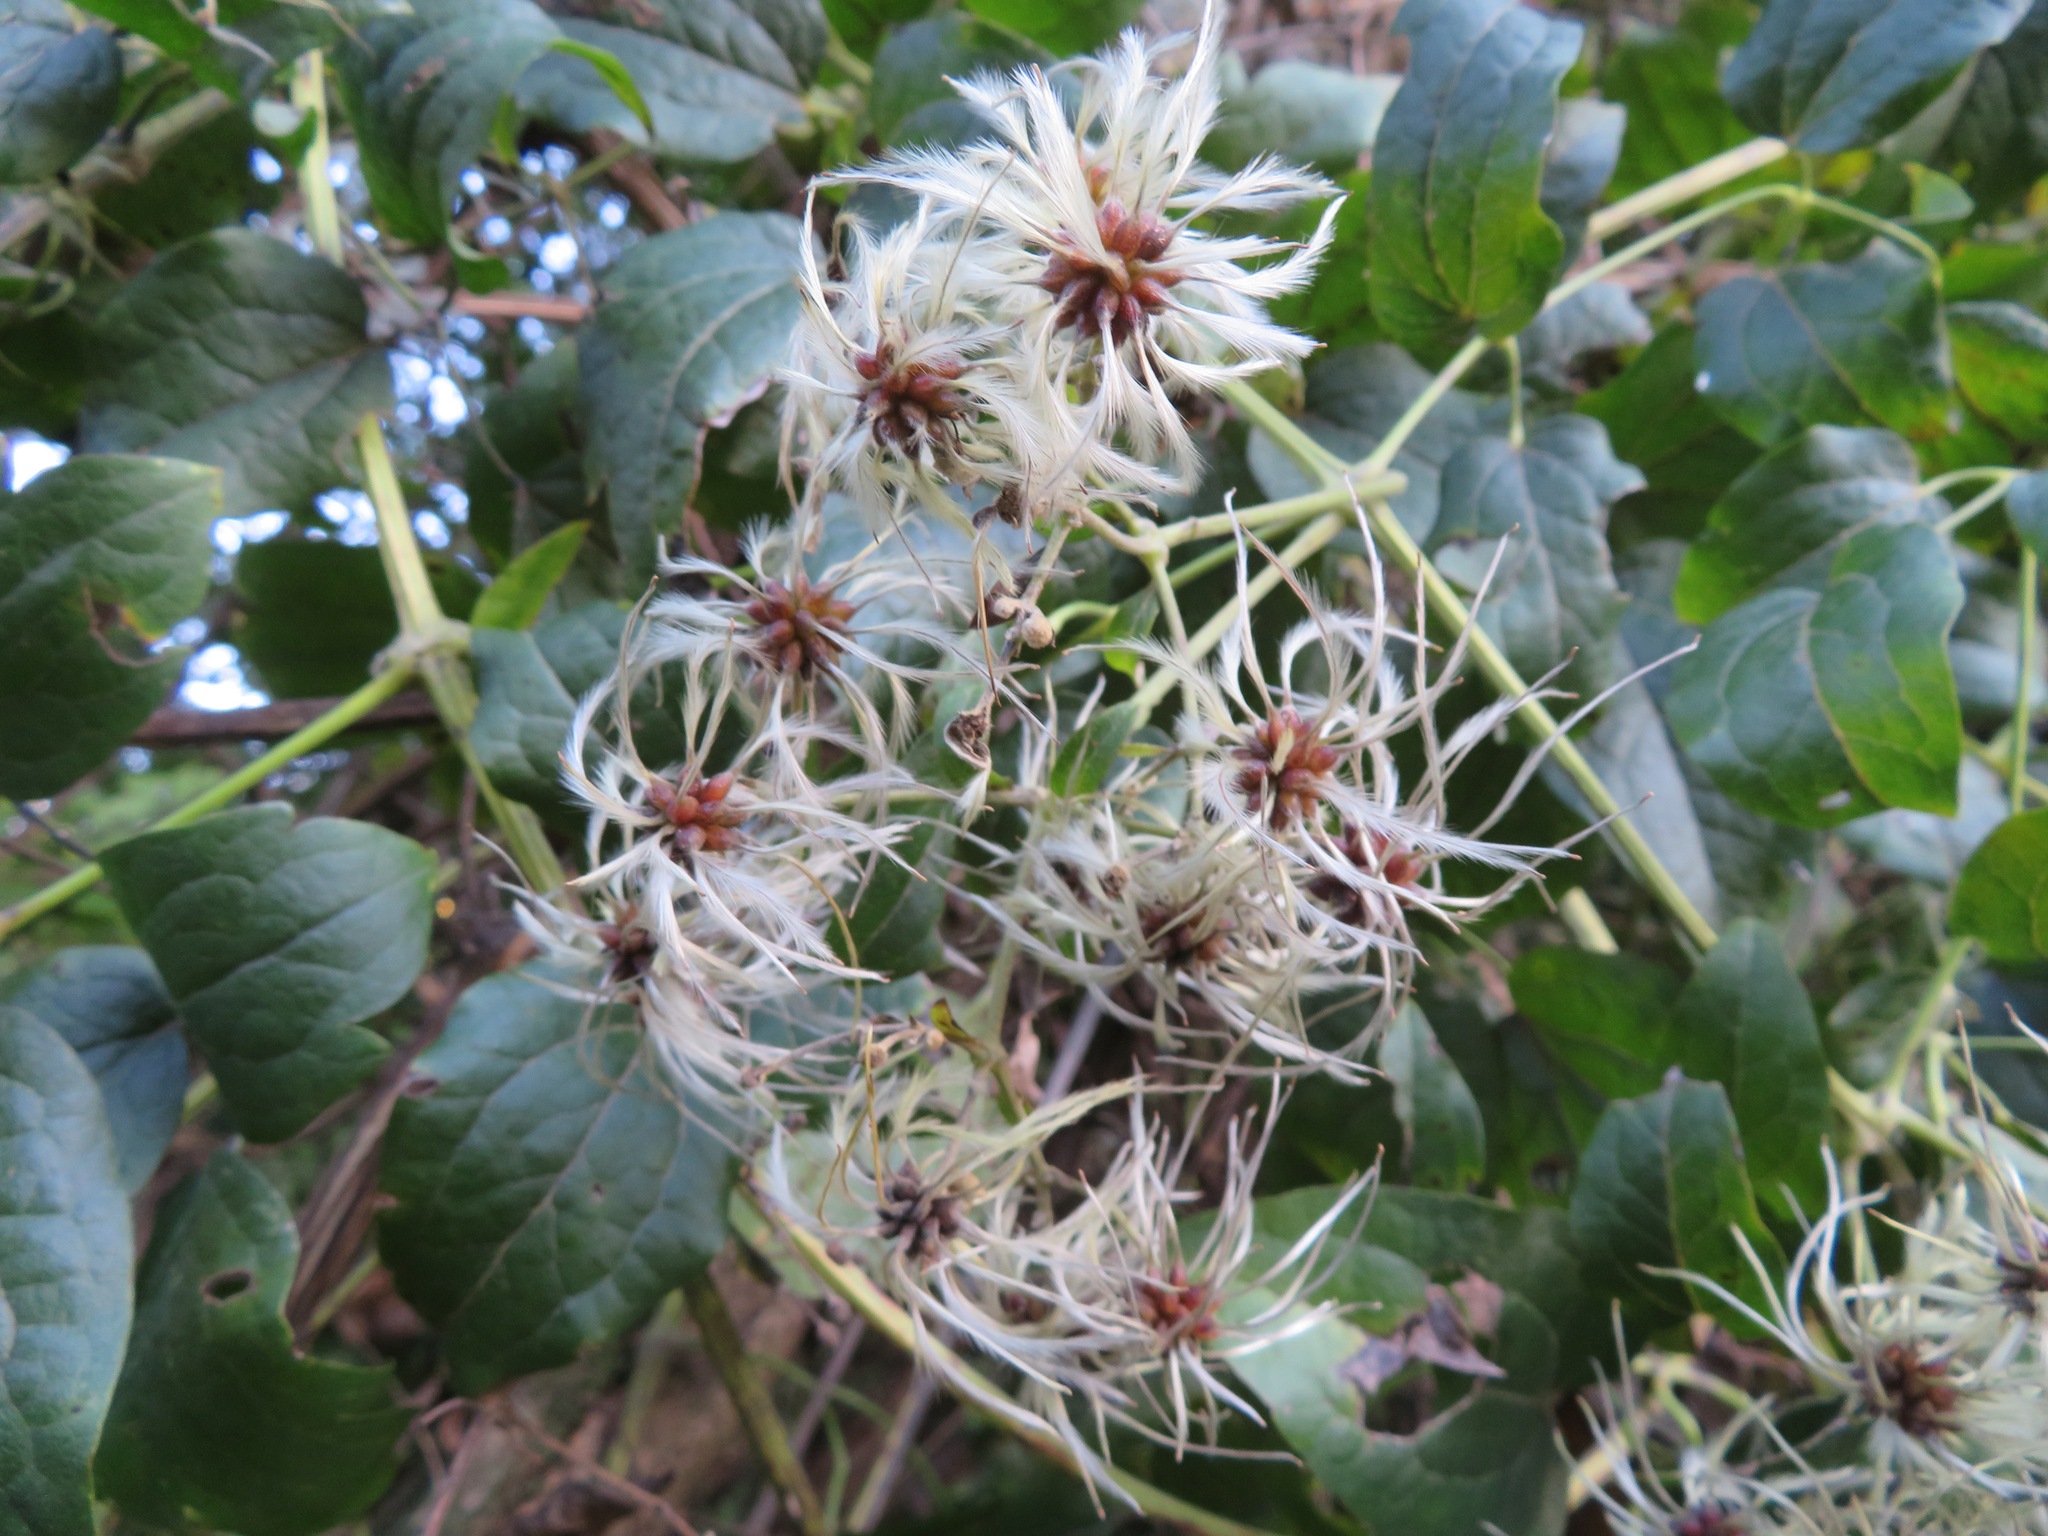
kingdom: Plantae
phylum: Tracheophyta
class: Magnoliopsida
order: Ranunculales
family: Ranunculaceae
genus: Clematis
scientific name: Clematis vitalba
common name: Evergreen clematis
